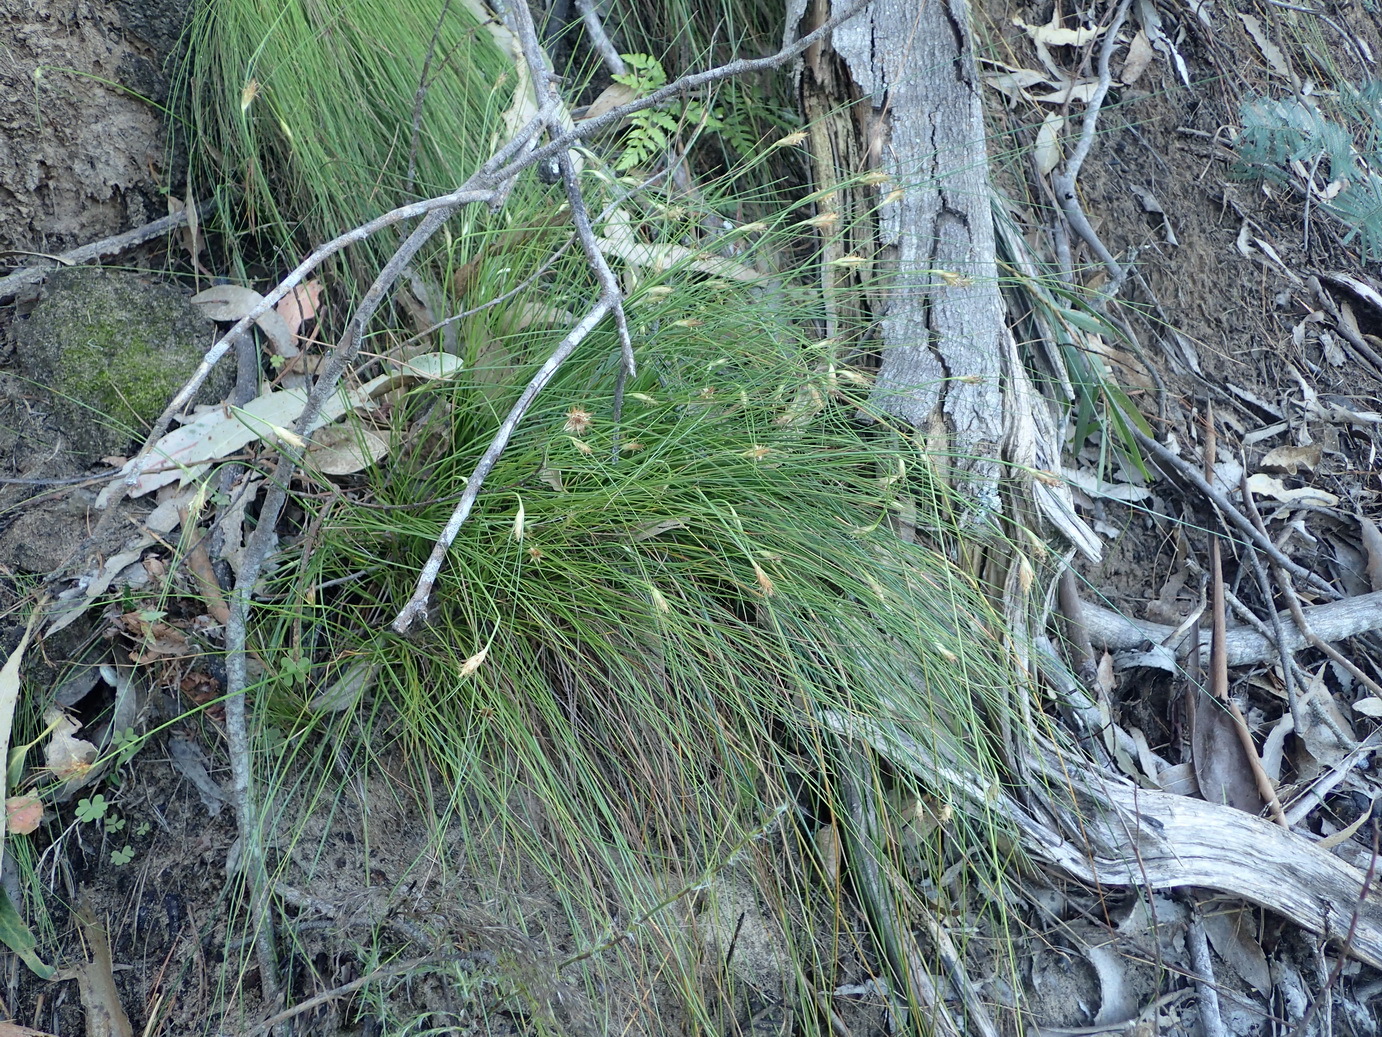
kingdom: Plantae
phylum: Tracheophyta
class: Liliopsida
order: Poales
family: Cyperaceae
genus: Ficinia
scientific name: Ficinia nigrescens
